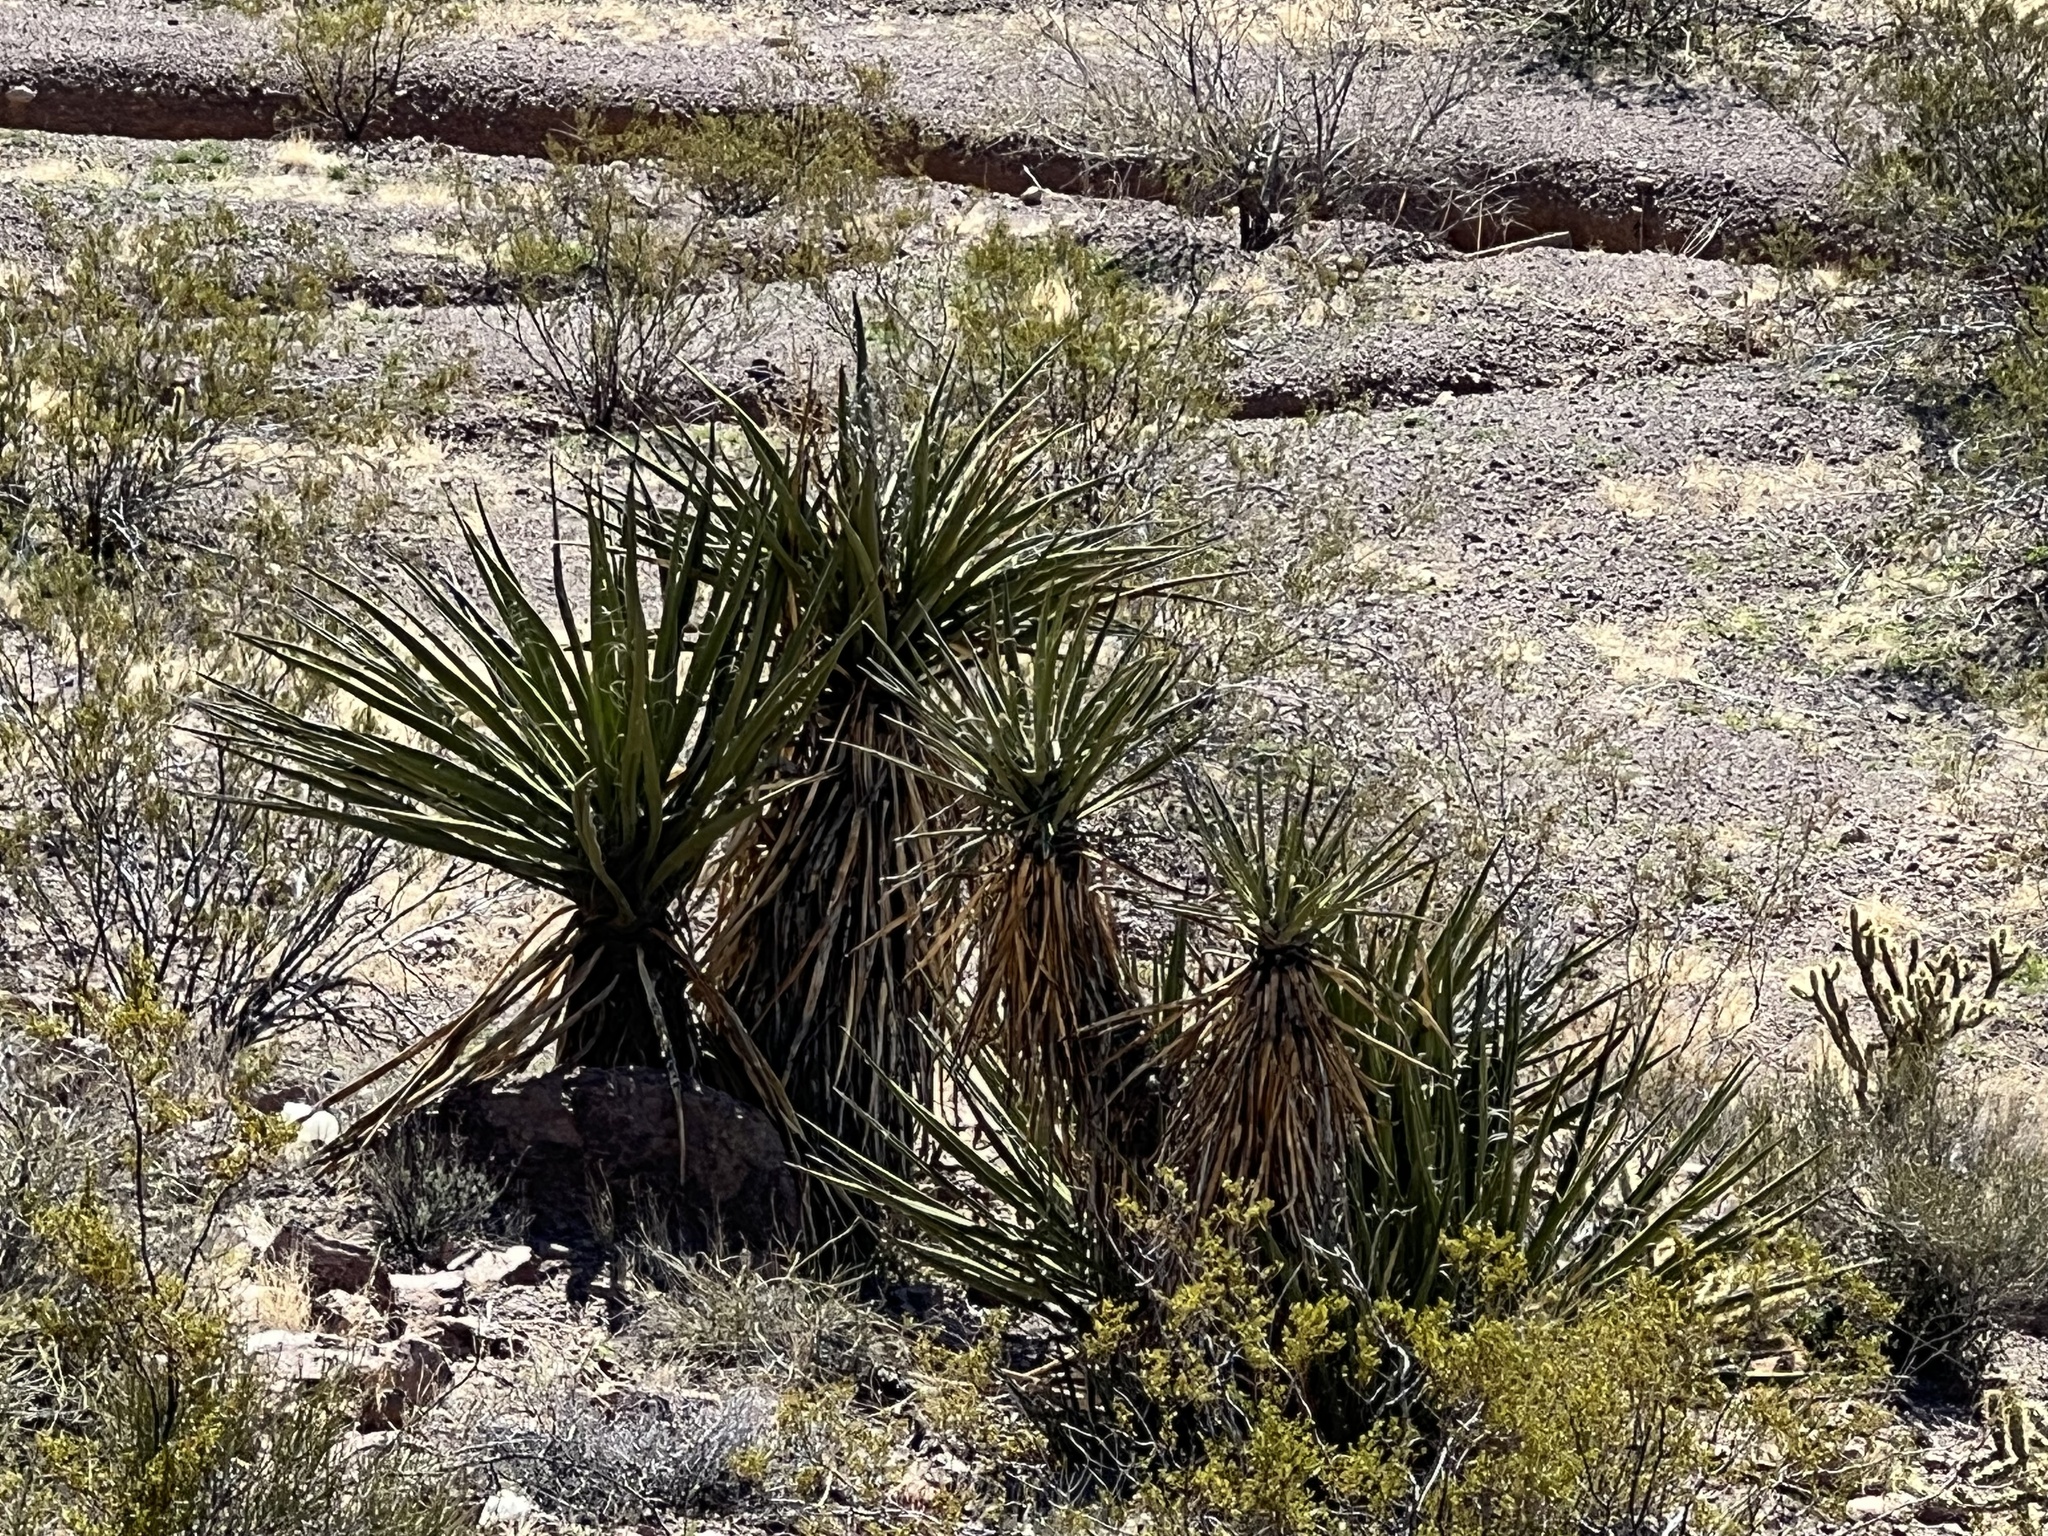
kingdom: Plantae
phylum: Tracheophyta
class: Liliopsida
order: Asparagales
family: Asparagaceae
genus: Yucca
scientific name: Yucca schidigera
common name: Mojave yucca
